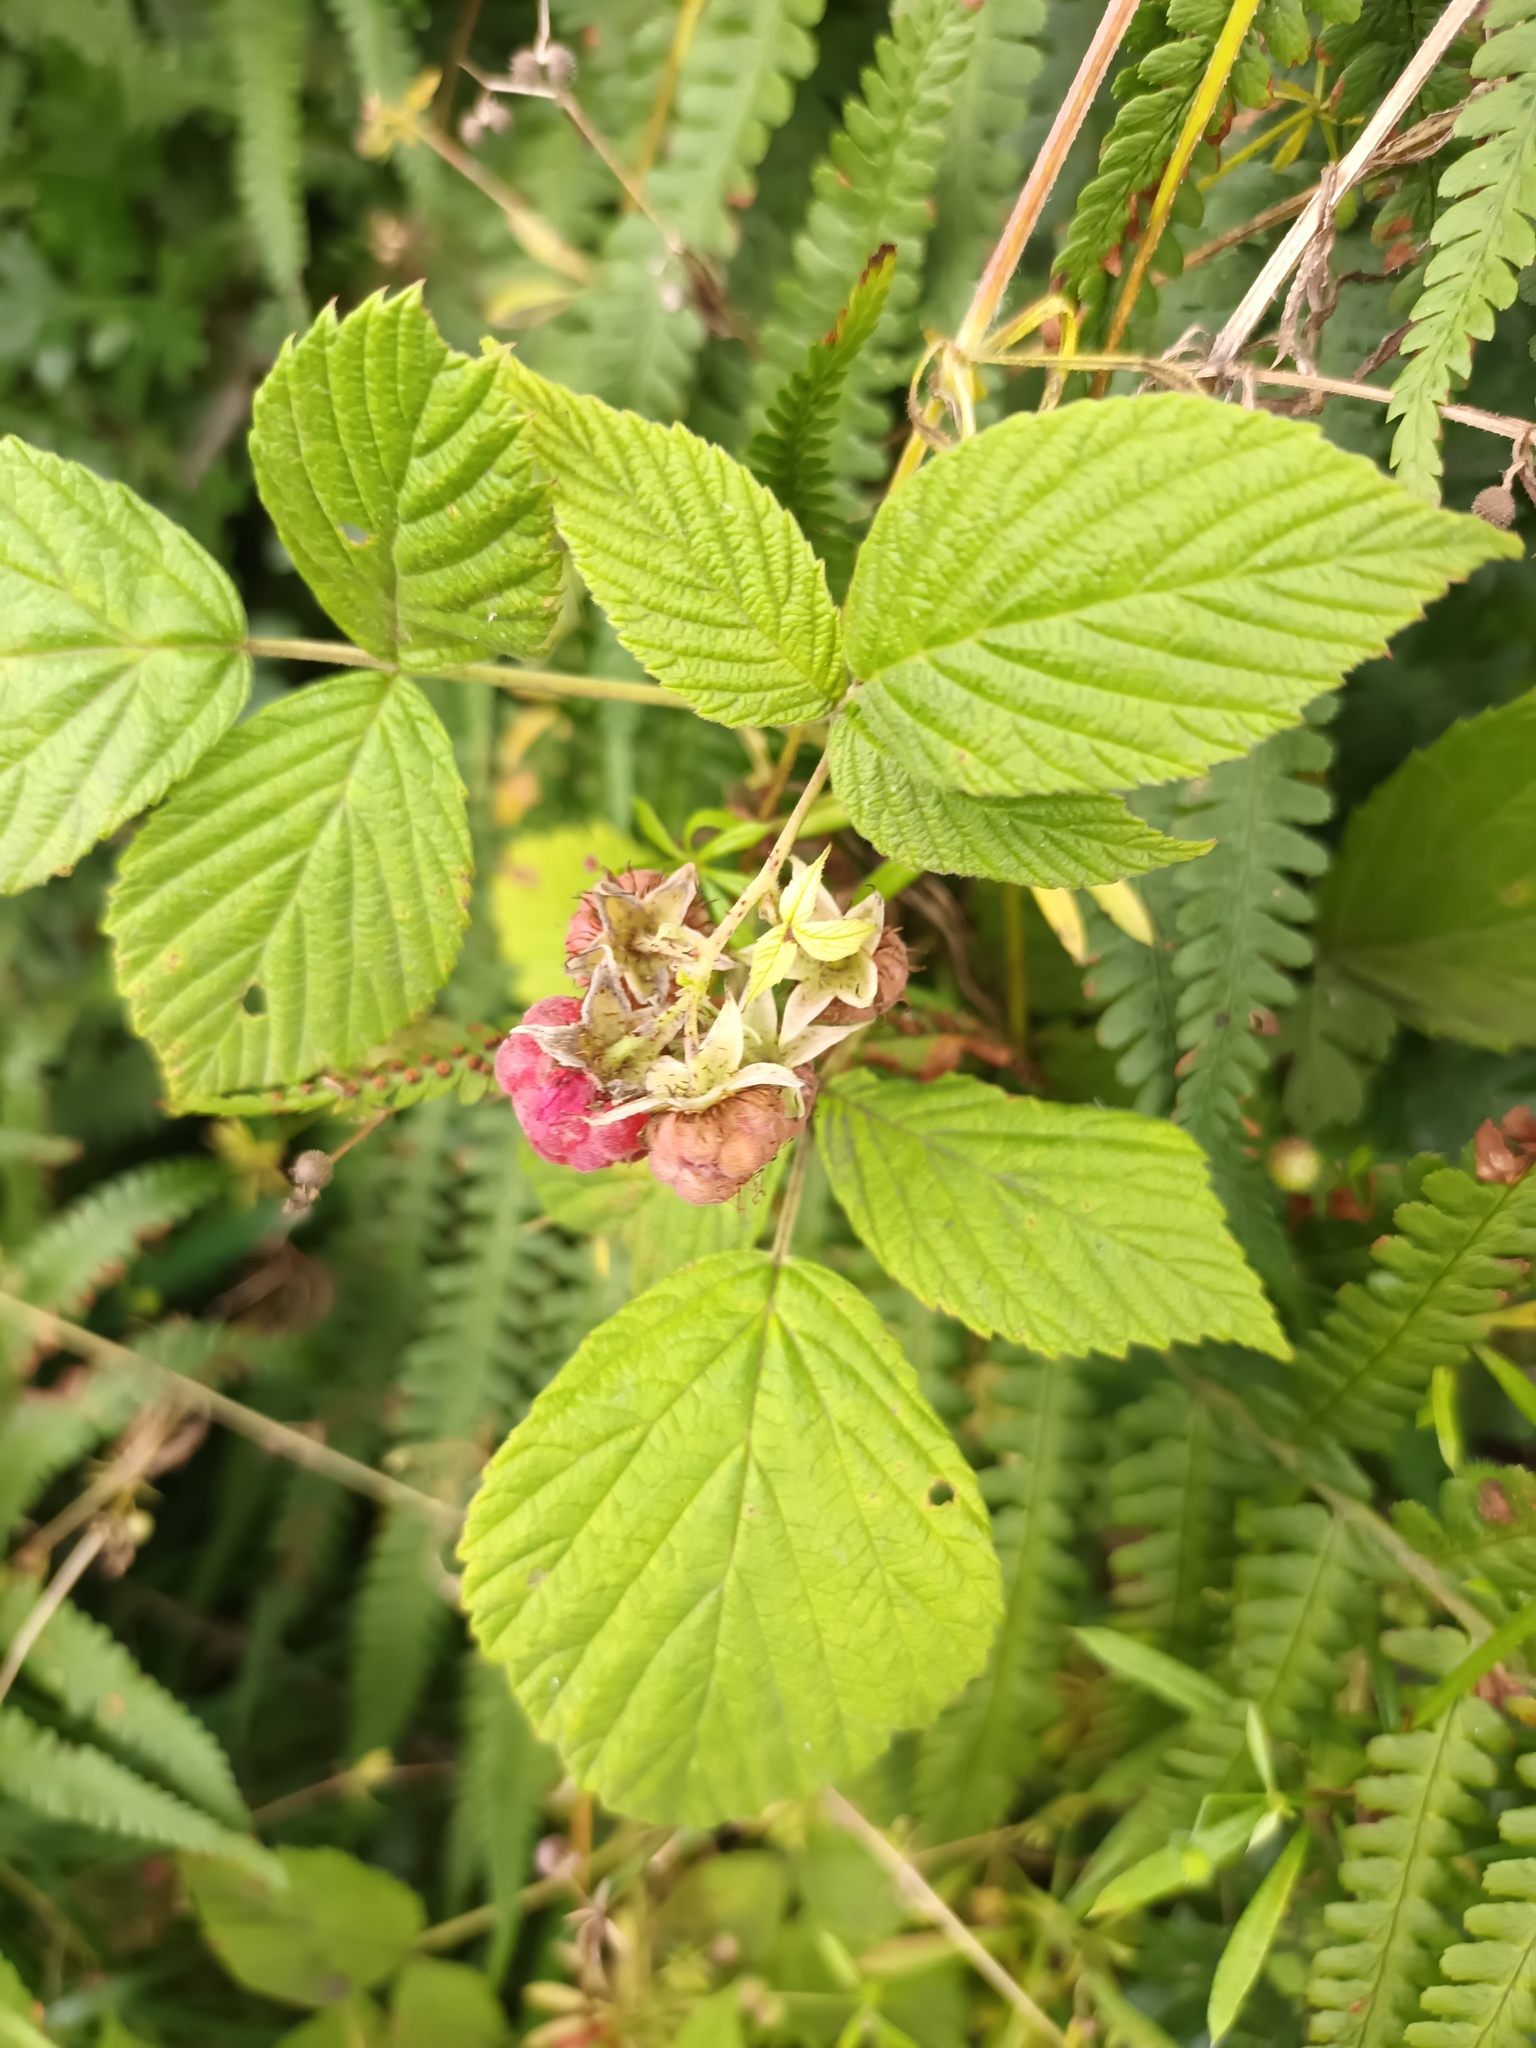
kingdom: Plantae
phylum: Tracheophyta
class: Magnoliopsida
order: Rosales
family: Rosaceae
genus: Rubus
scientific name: Rubus idaeus
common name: Raspberry
